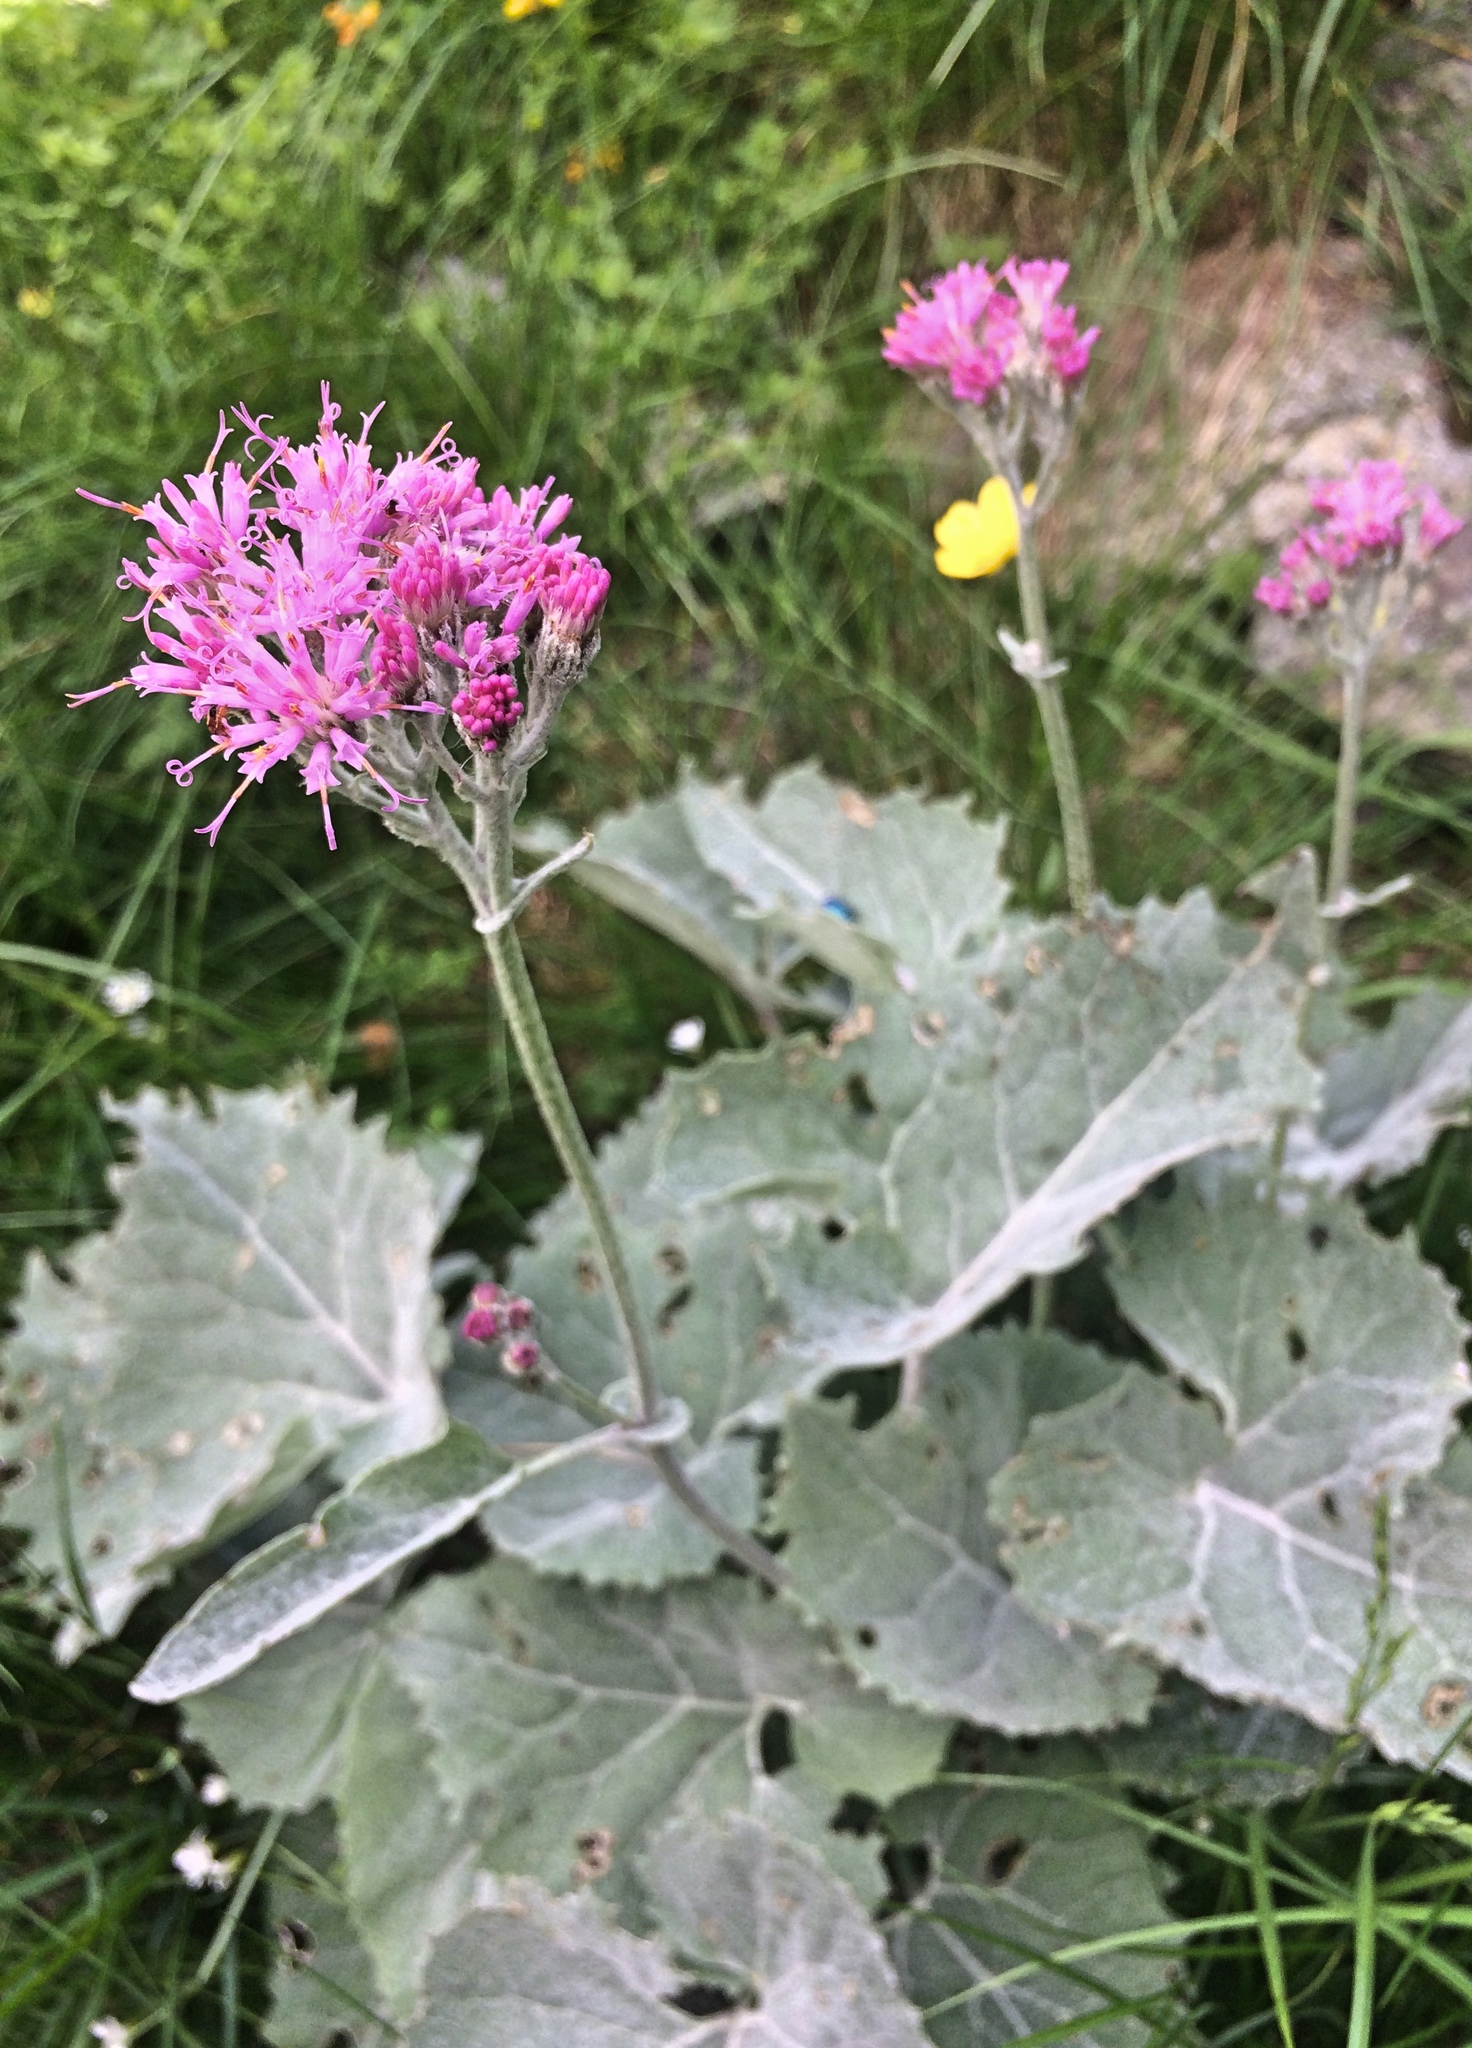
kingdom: Plantae
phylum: Tracheophyta
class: Magnoliopsida
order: Asterales
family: Asteraceae
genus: Adenostyles
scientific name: Adenostyles leucophylla
